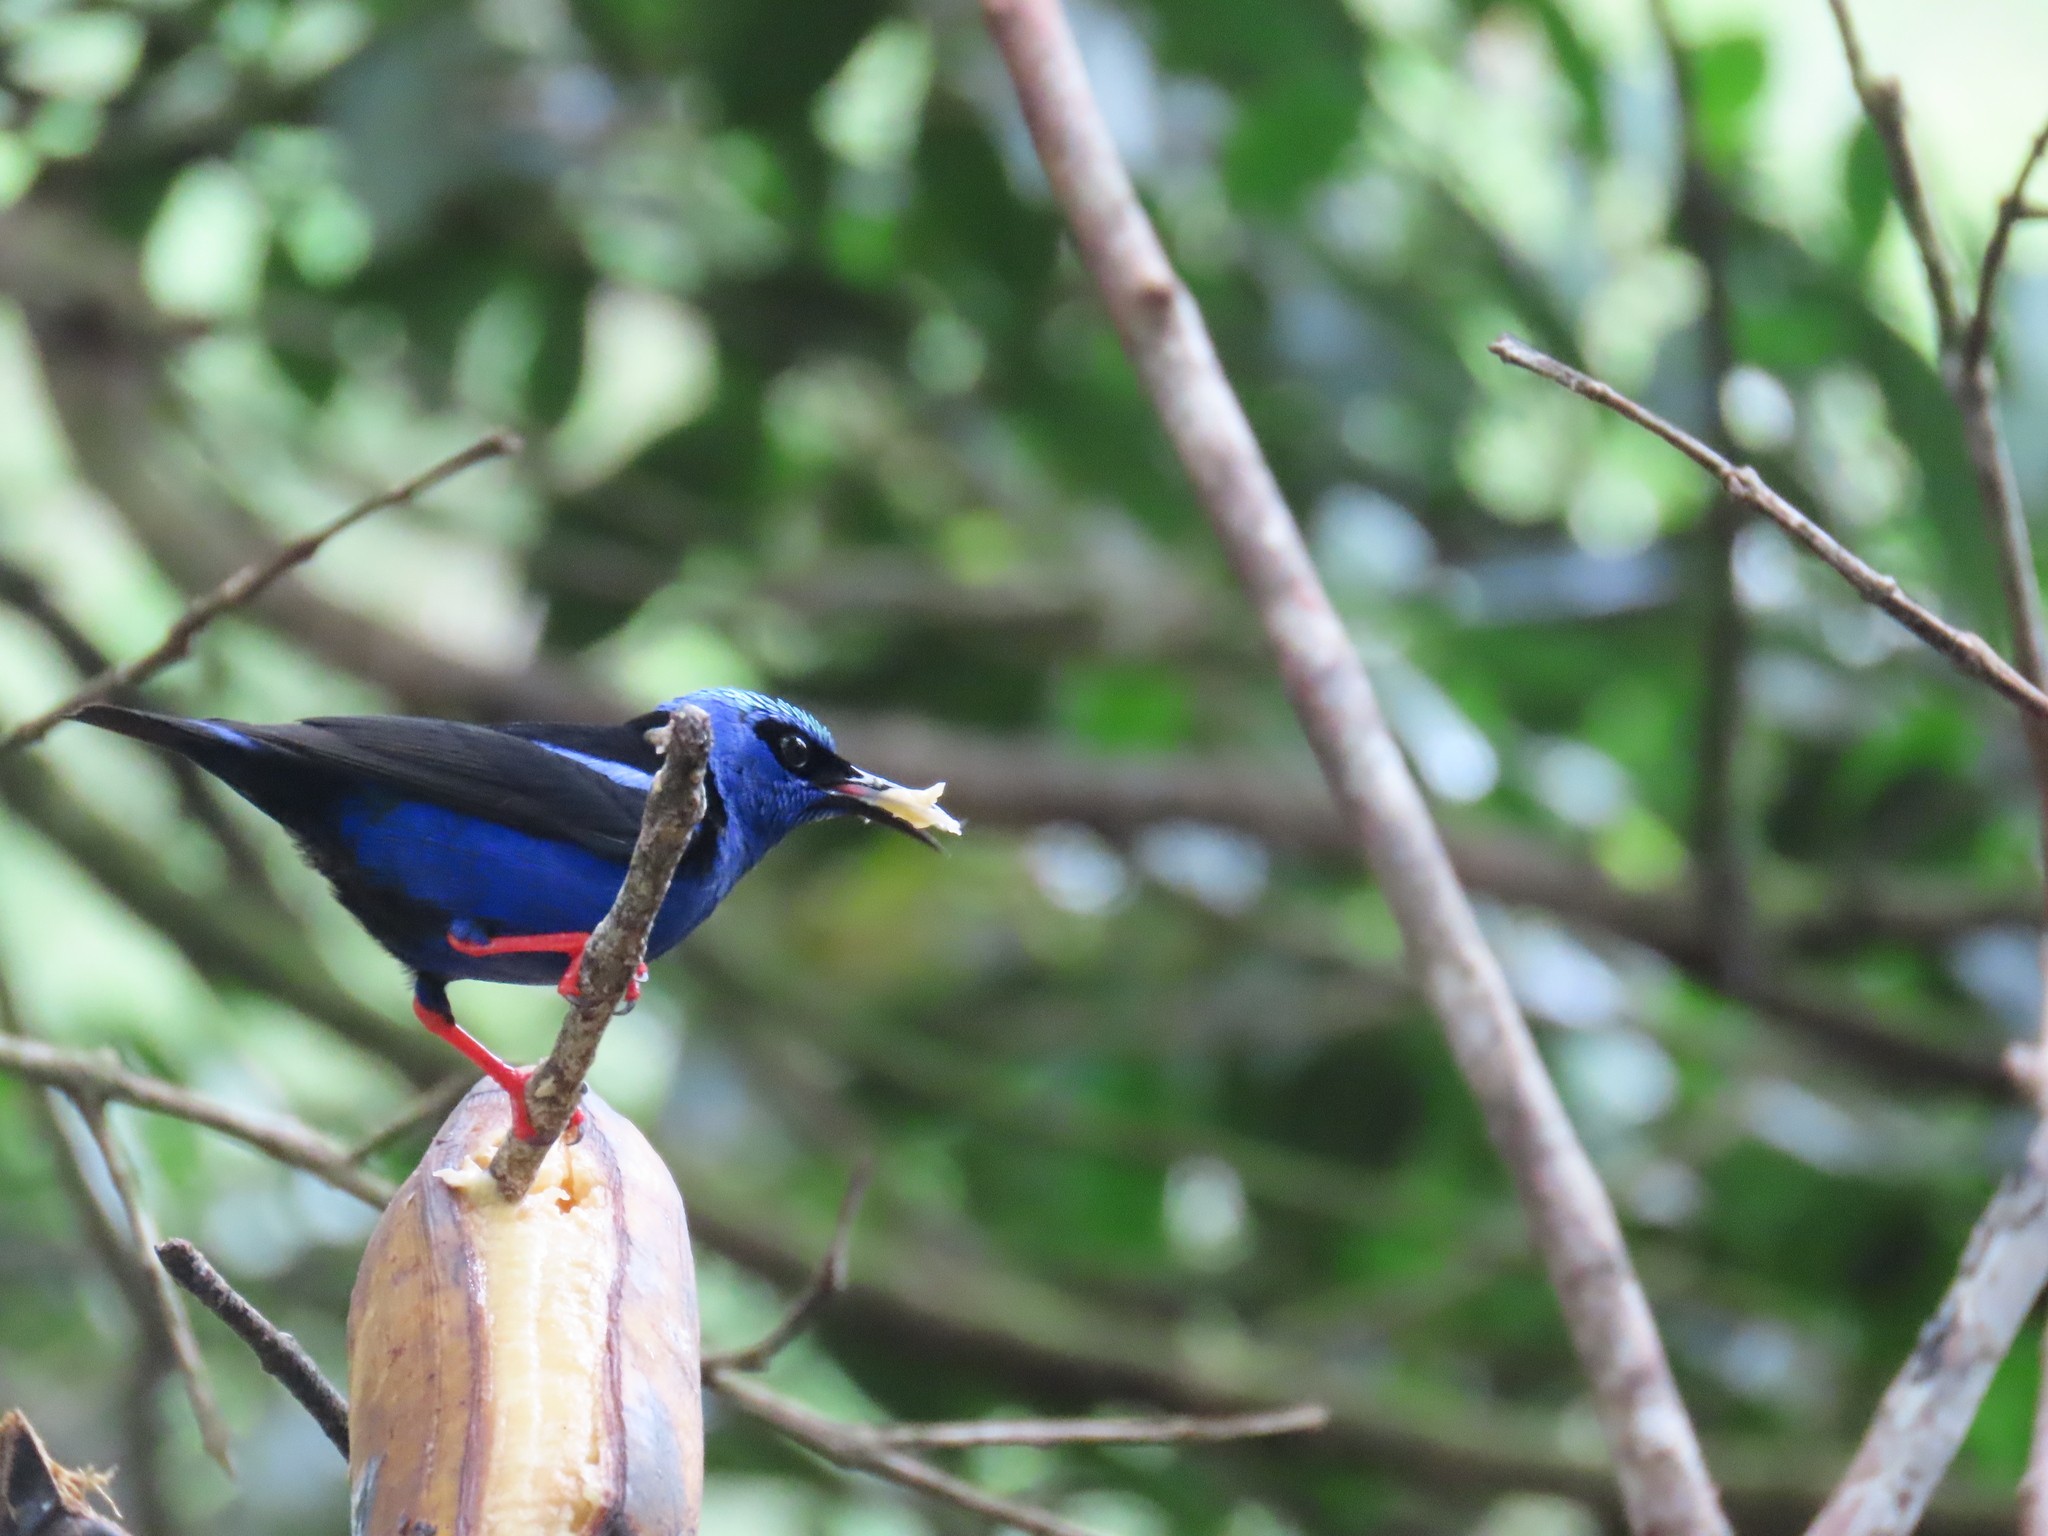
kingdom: Animalia
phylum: Chordata
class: Aves
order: Passeriformes
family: Thraupidae
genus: Cyanerpes
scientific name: Cyanerpes cyaneus
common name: Red-legged honeycreeper
